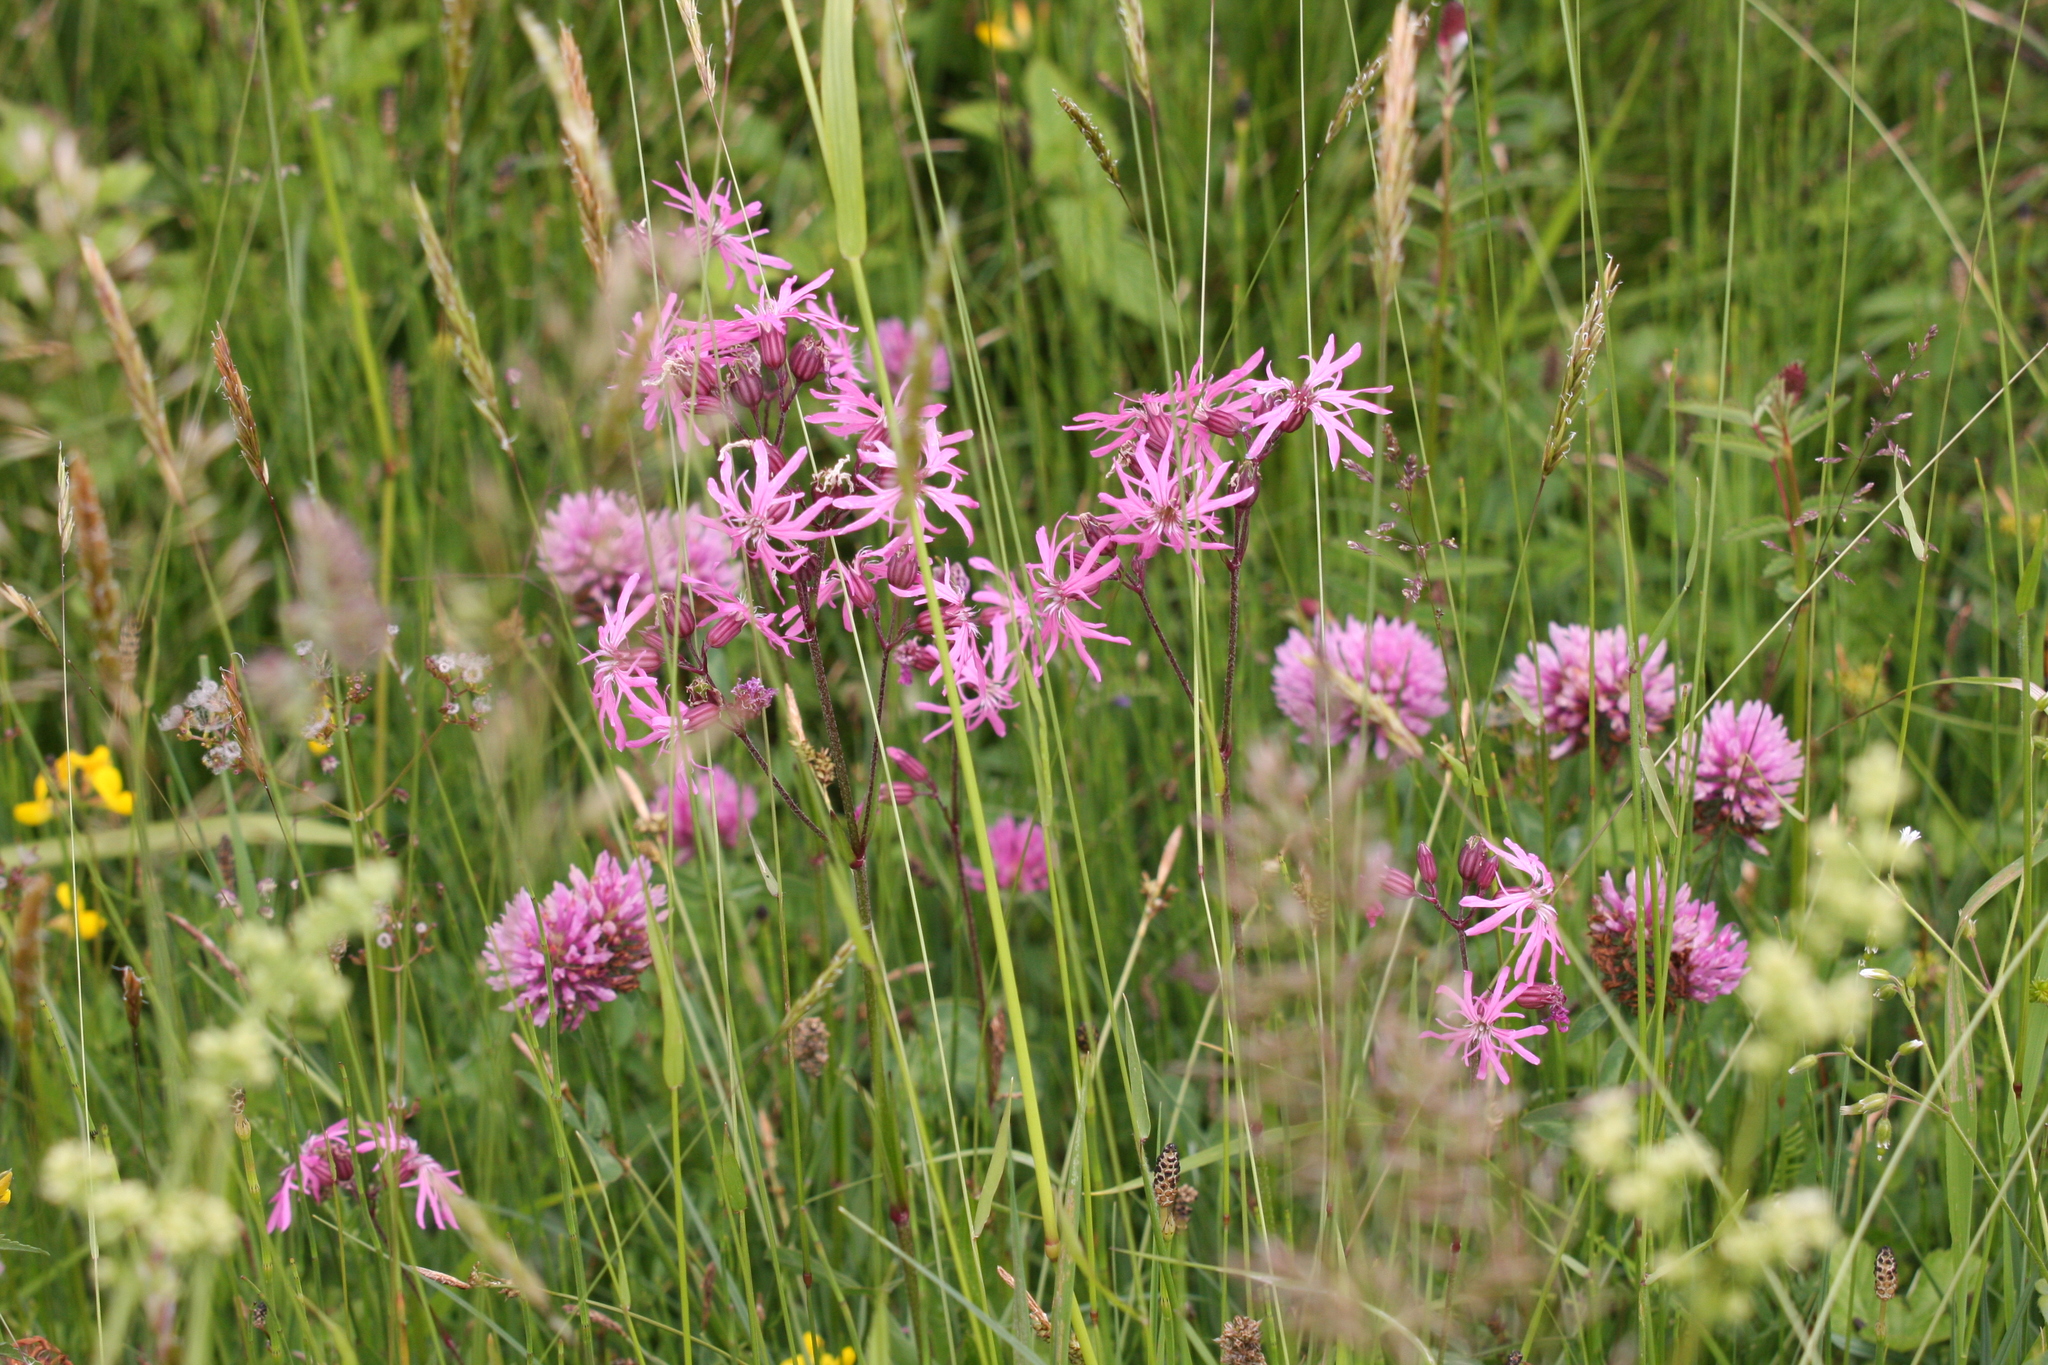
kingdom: Plantae
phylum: Tracheophyta
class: Magnoliopsida
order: Caryophyllales
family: Caryophyllaceae
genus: Silene
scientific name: Silene flos-cuculi
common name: Ragged-robin
